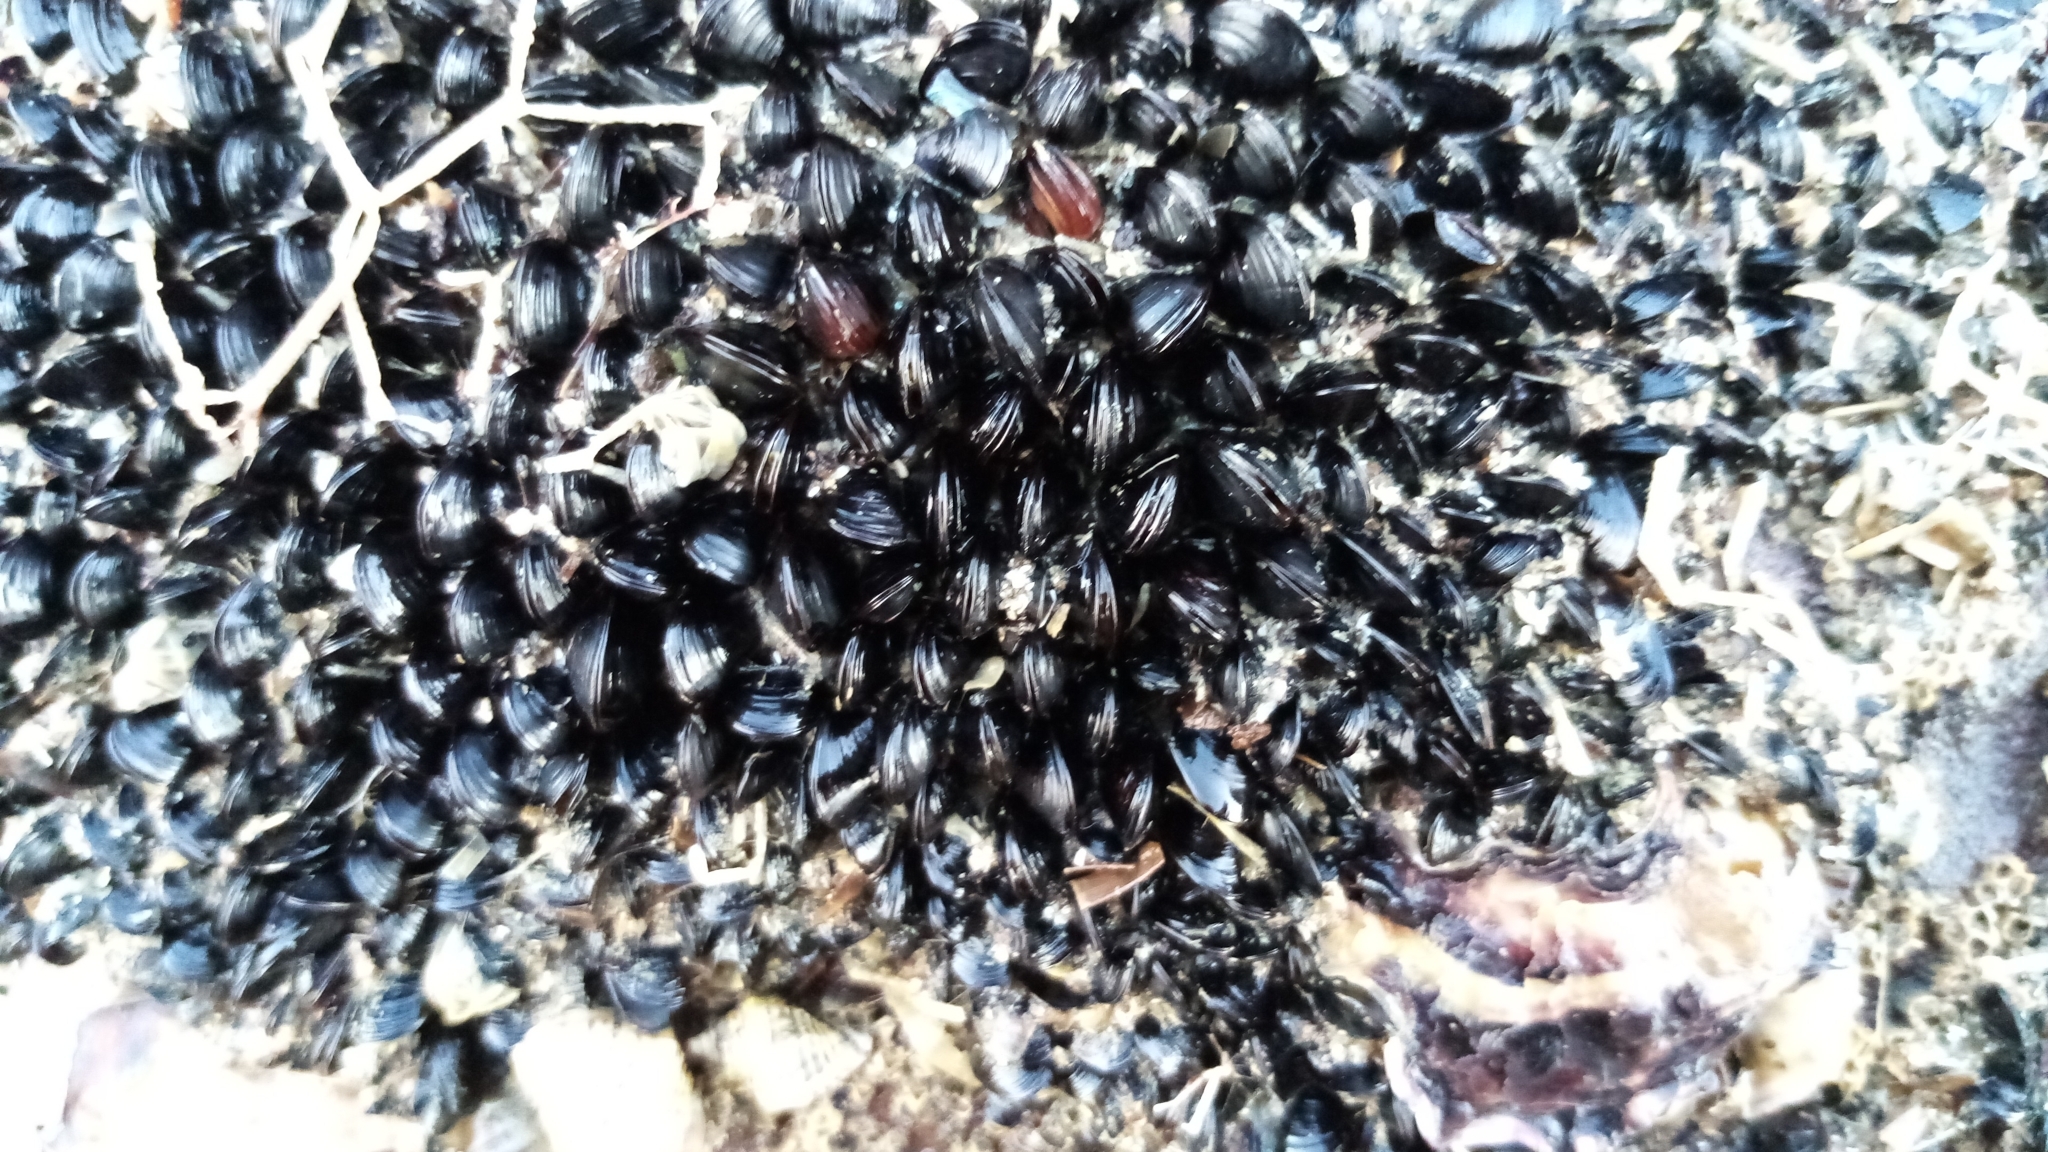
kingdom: Animalia
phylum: Mollusca
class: Bivalvia
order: Mytilida
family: Mytilidae
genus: Xenostrobus
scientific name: Xenostrobus neozelanicus
